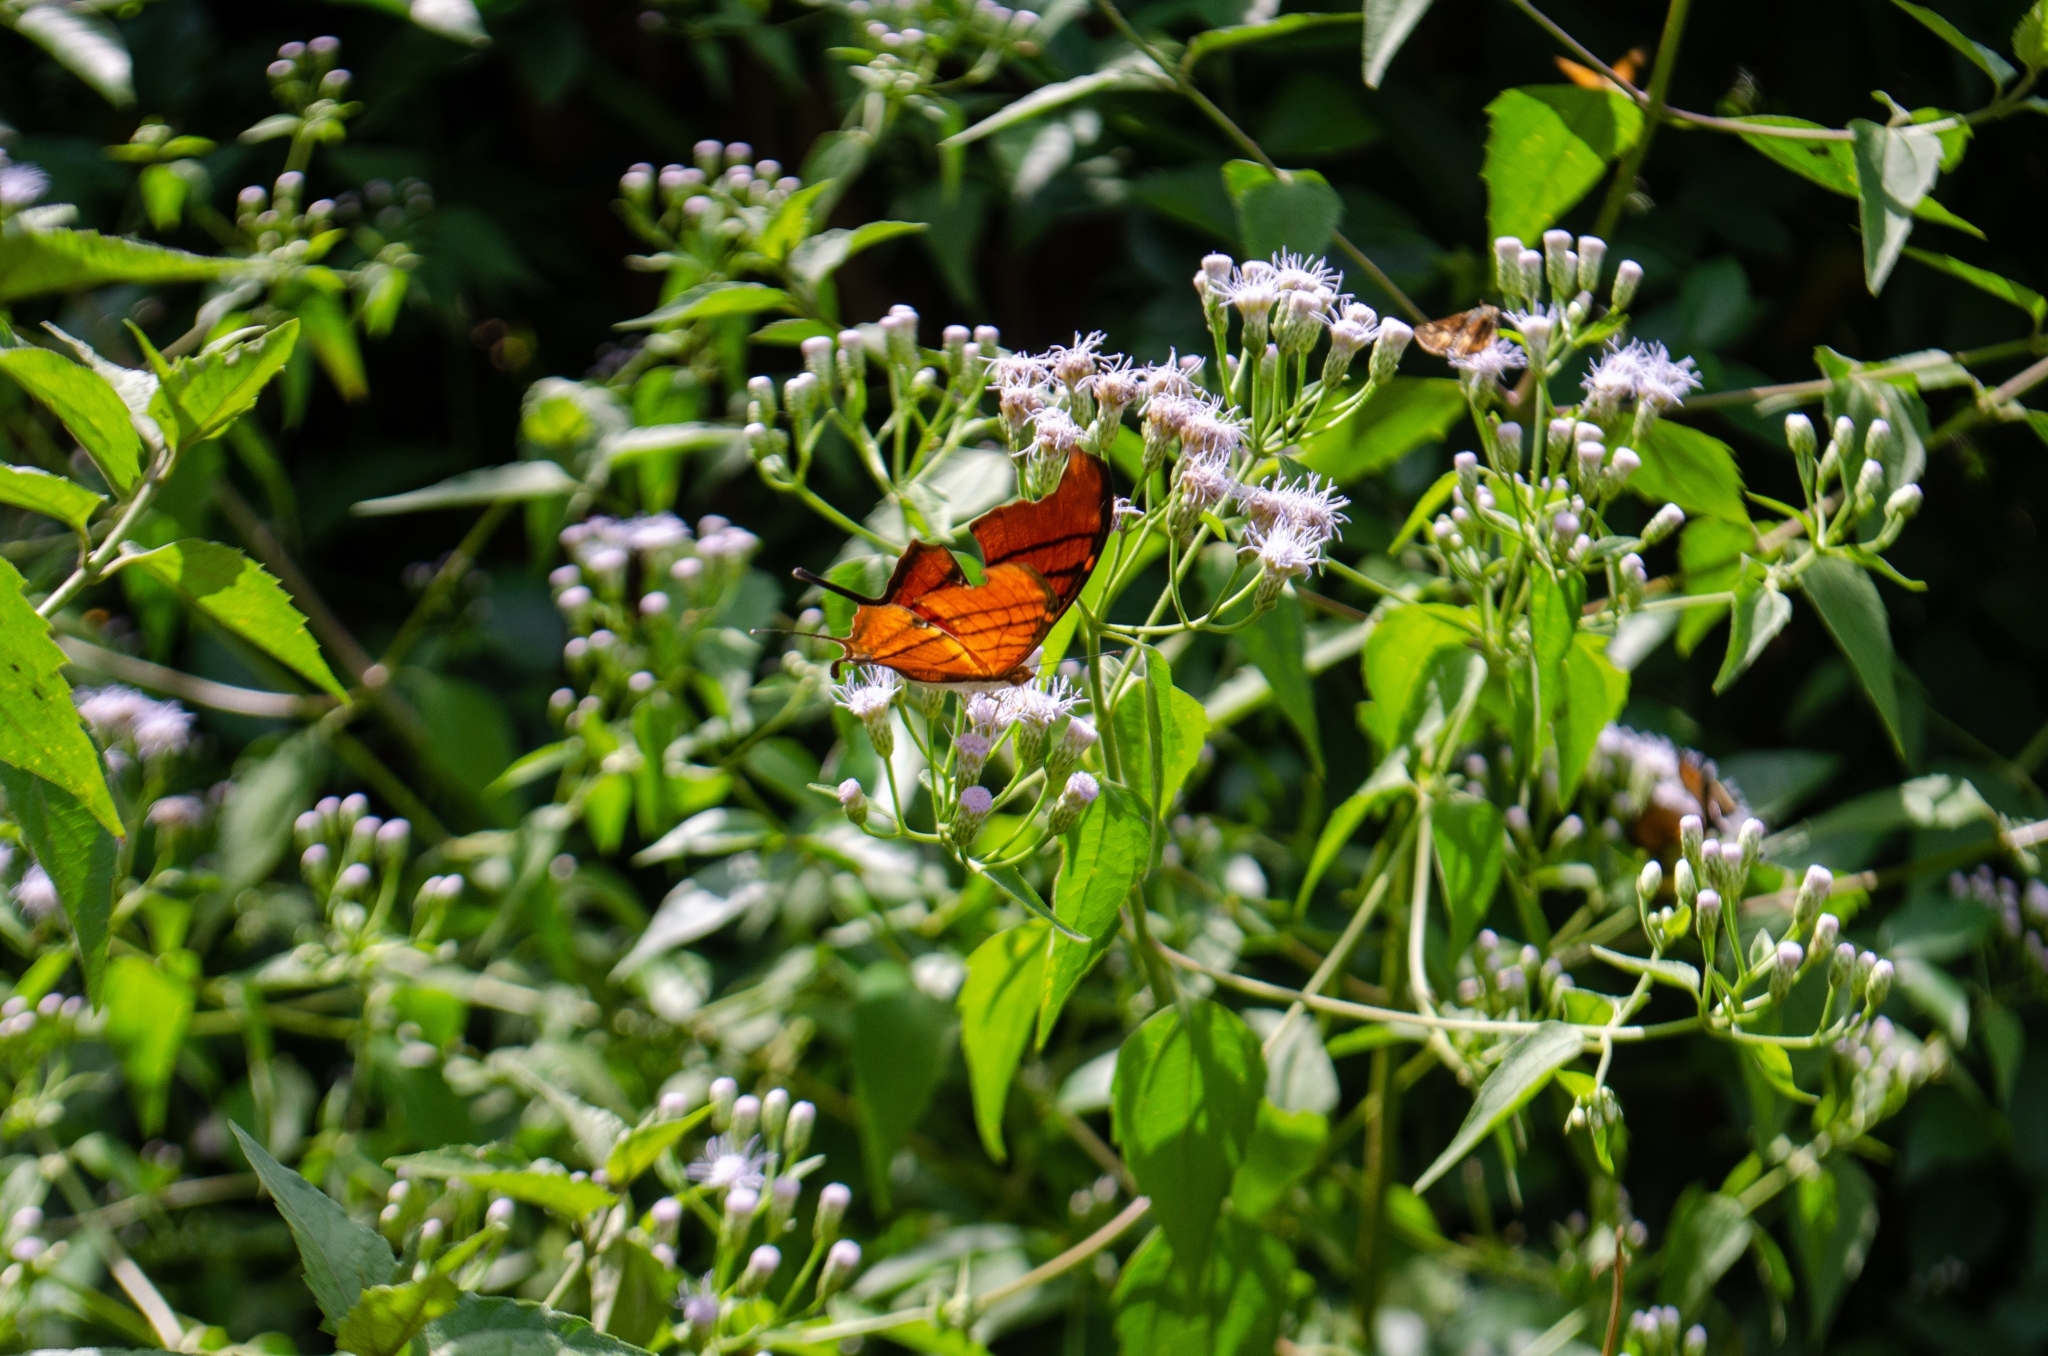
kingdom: Animalia
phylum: Arthropoda
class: Insecta
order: Lepidoptera
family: Nymphalidae
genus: Marpesia
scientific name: Marpesia petreus
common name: Red dagger wing
